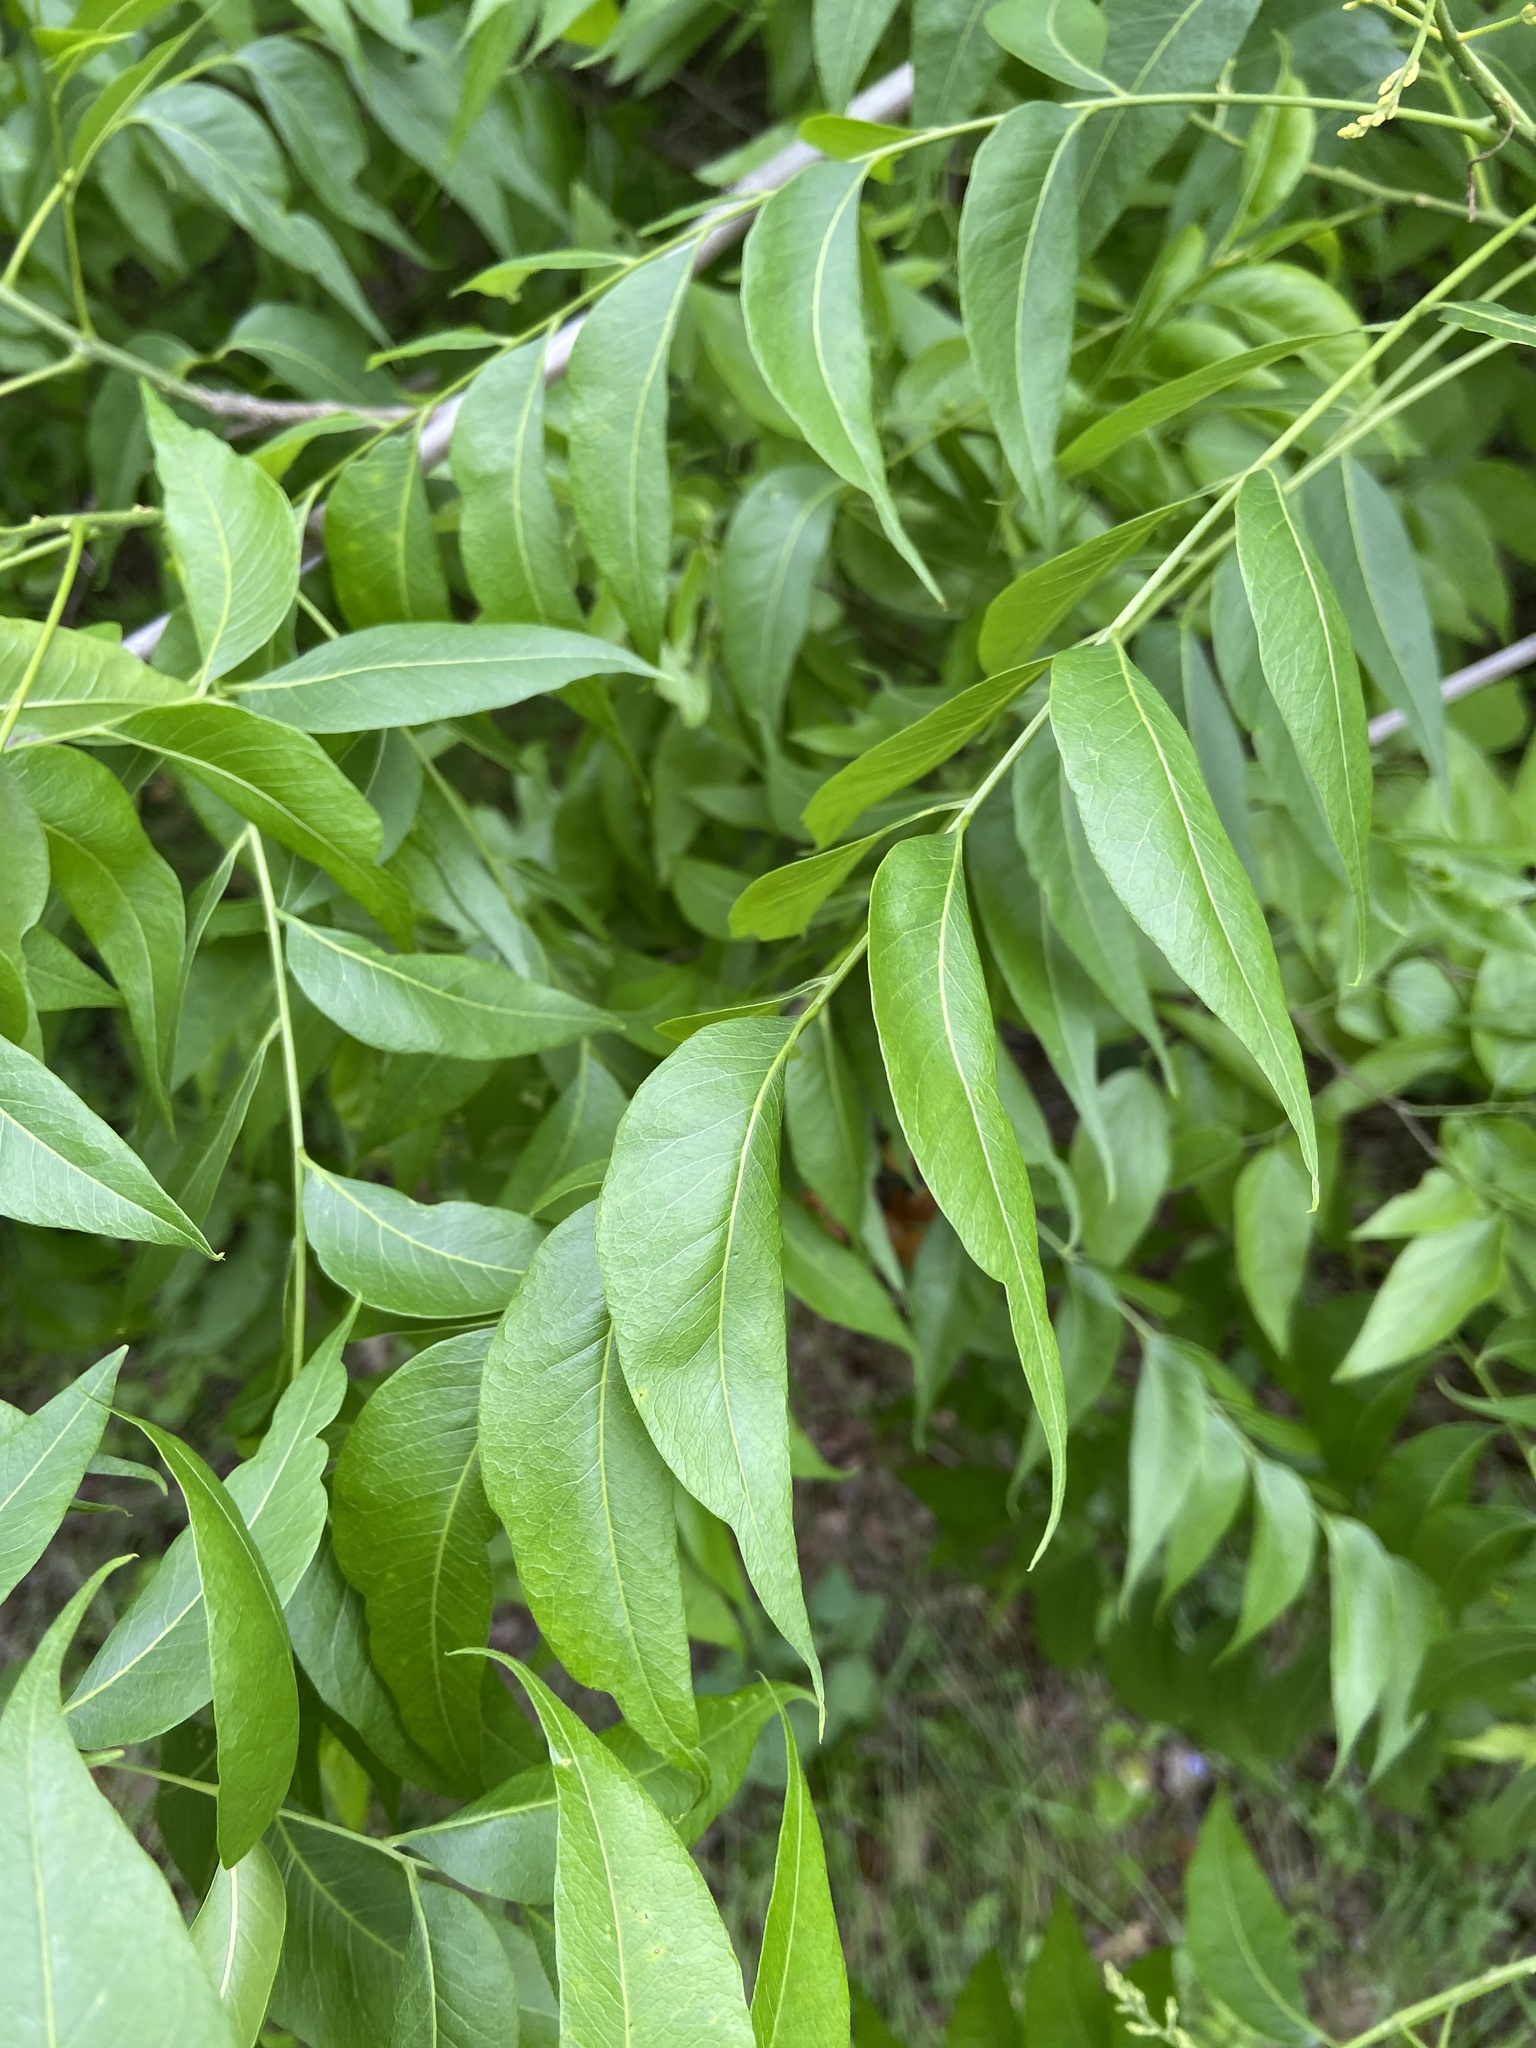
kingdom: Plantae
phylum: Tracheophyta
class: Magnoliopsida
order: Sapindales
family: Sapindaceae
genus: Sapindus
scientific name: Sapindus drummondii
